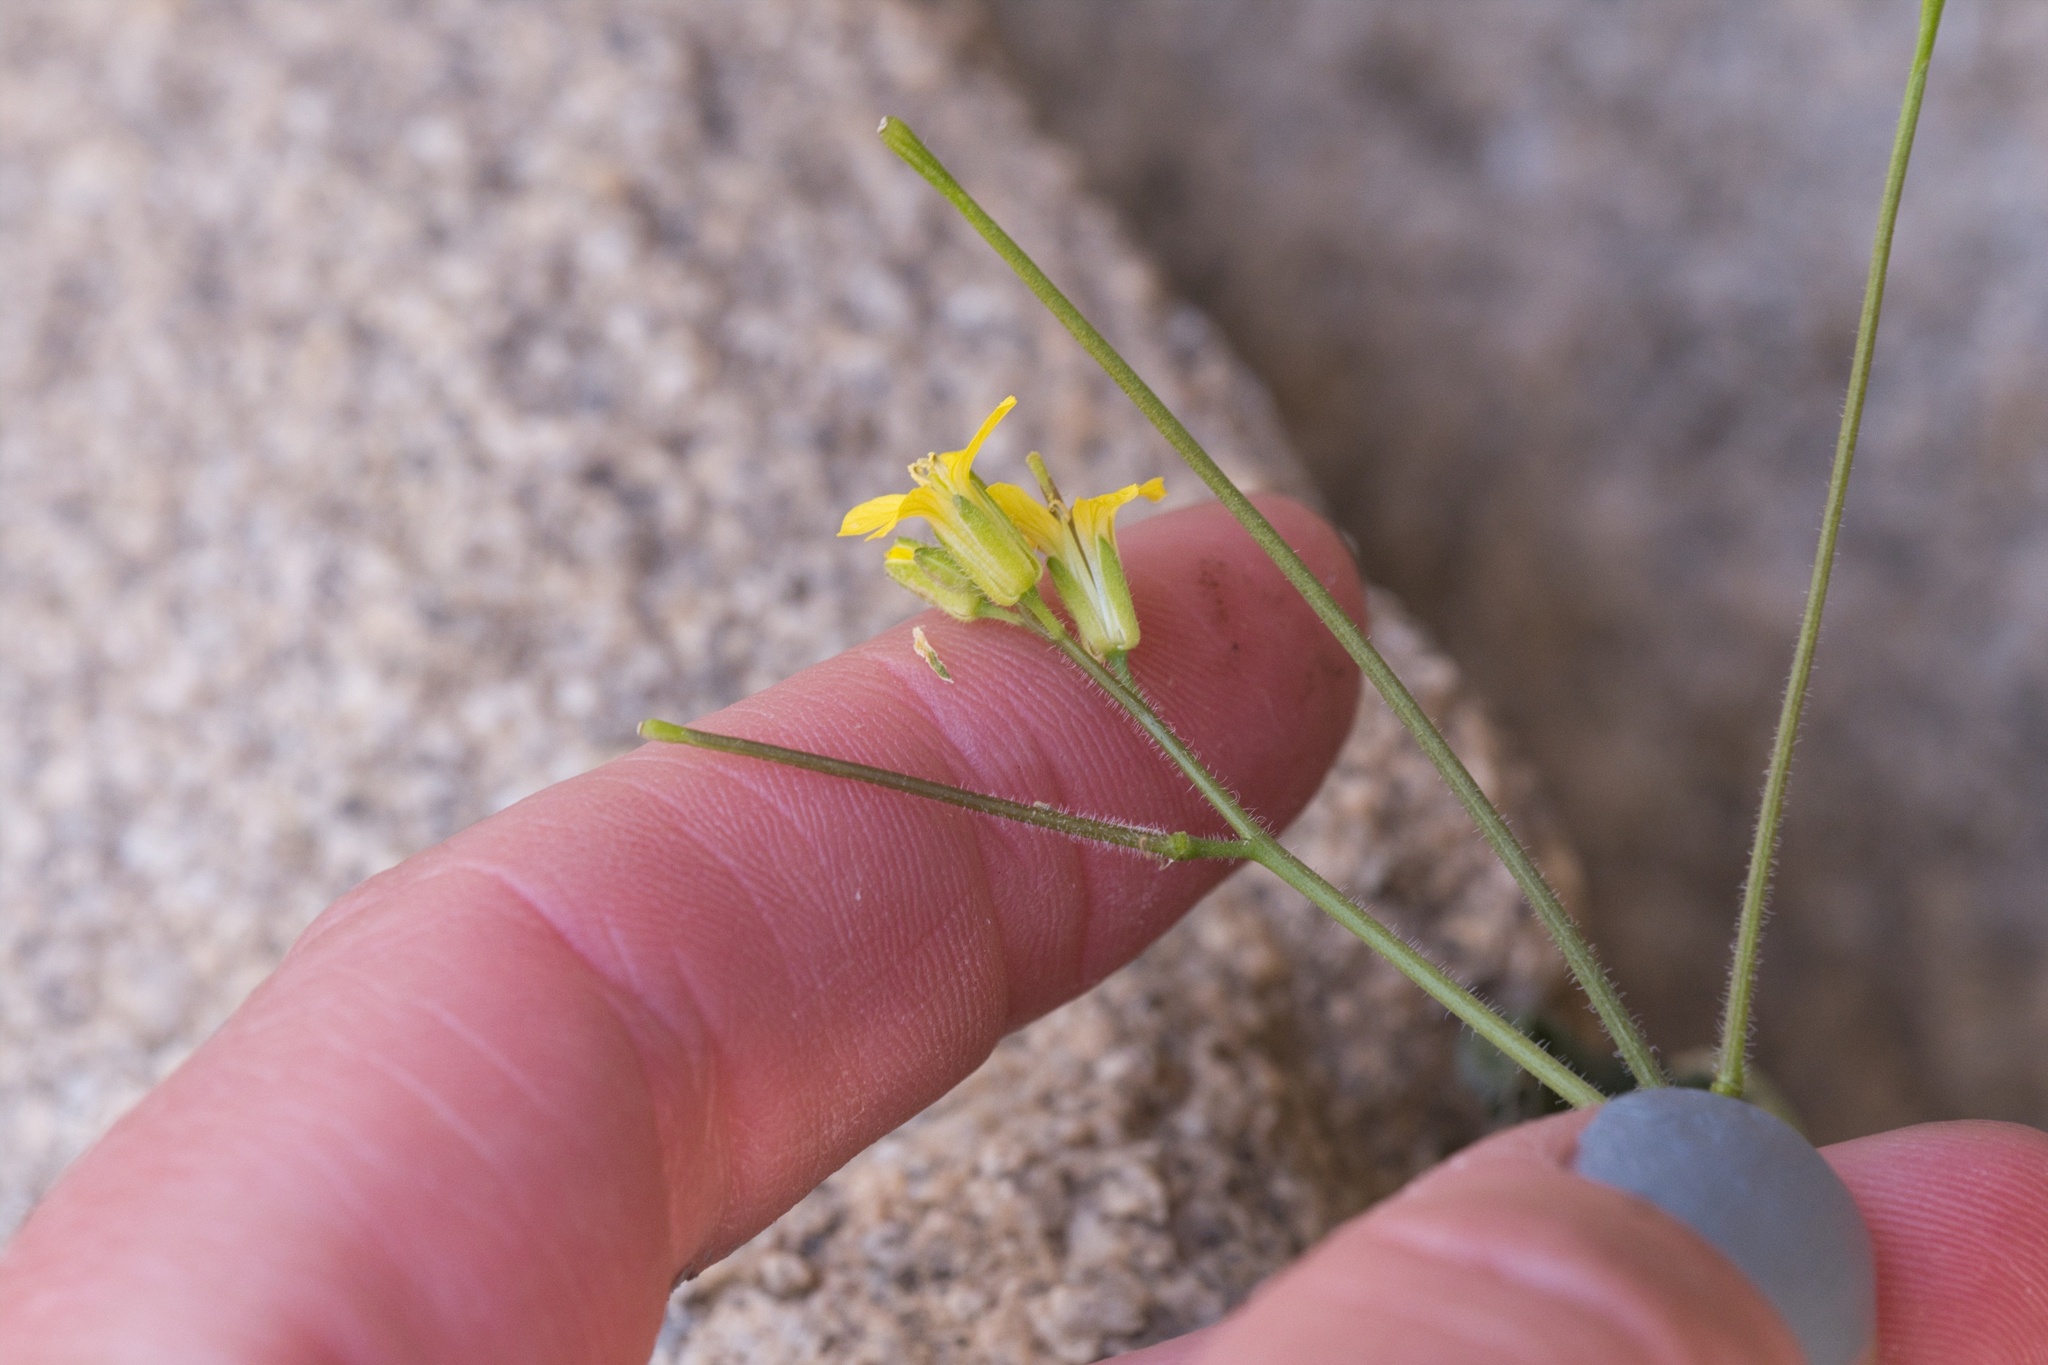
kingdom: Plantae
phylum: Tracheophyta
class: Magnoliopsida
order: Brassicales
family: Brassicaceae
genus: Sisymbrium
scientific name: Sisymbrium orientale
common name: Eastern rocket
